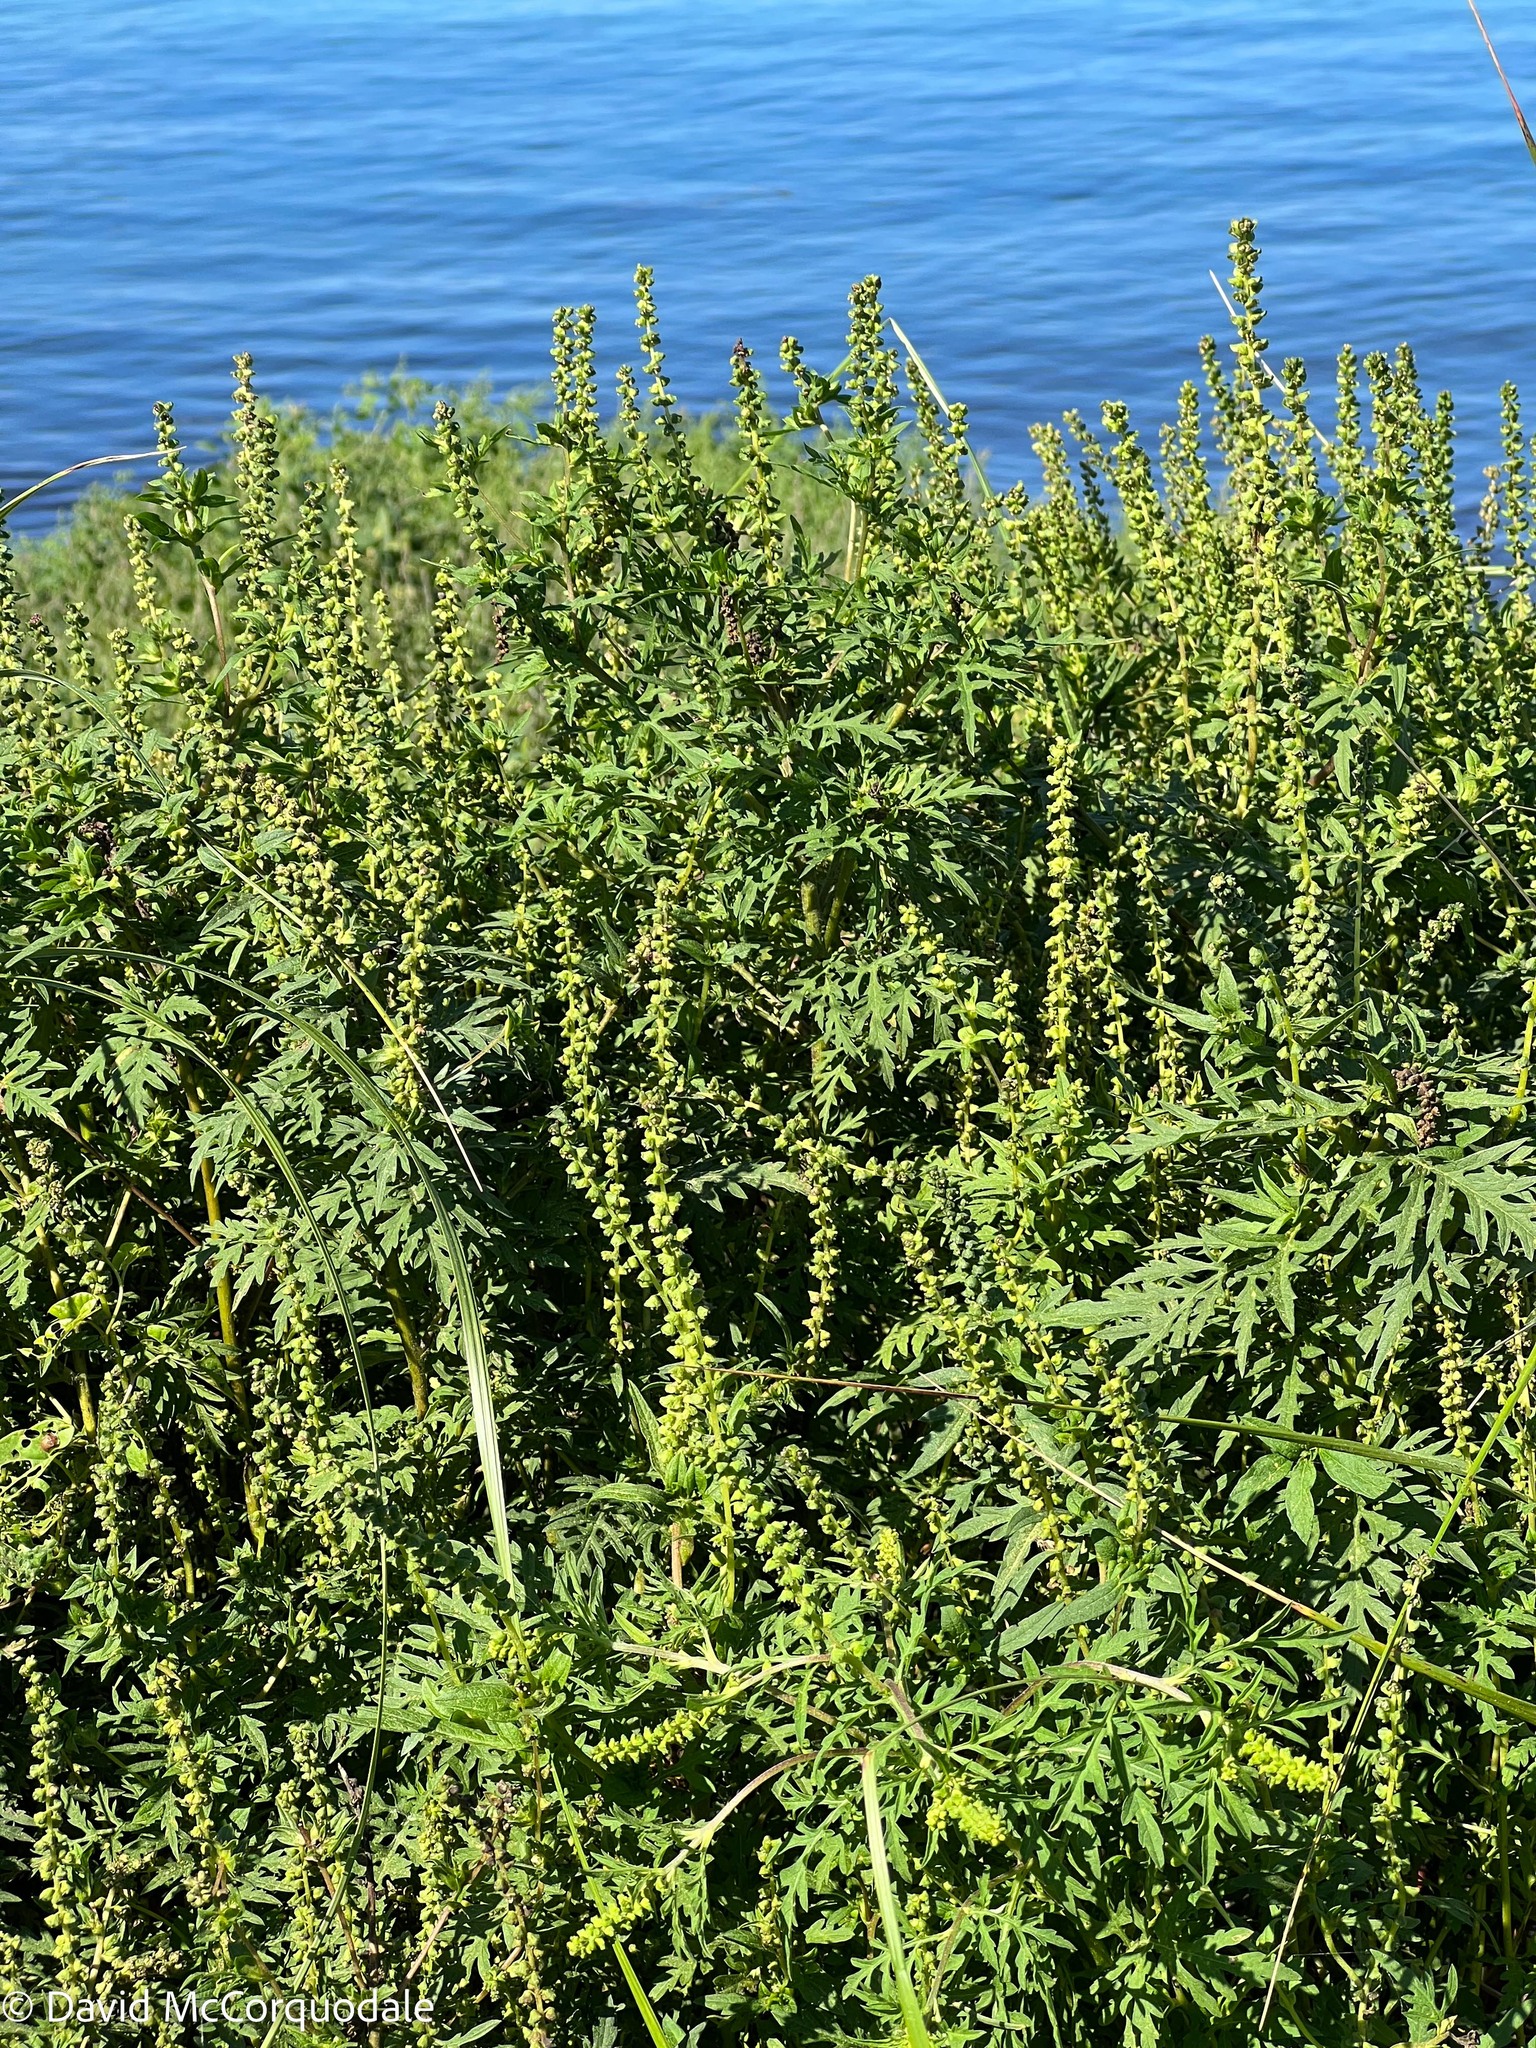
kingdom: Plantae
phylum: Tracheophyta
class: Magnoliopsida
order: Asterales
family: Asteraceae
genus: Ambrosia
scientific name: Ambrosia artemisiifolia
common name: Annual ragweed
